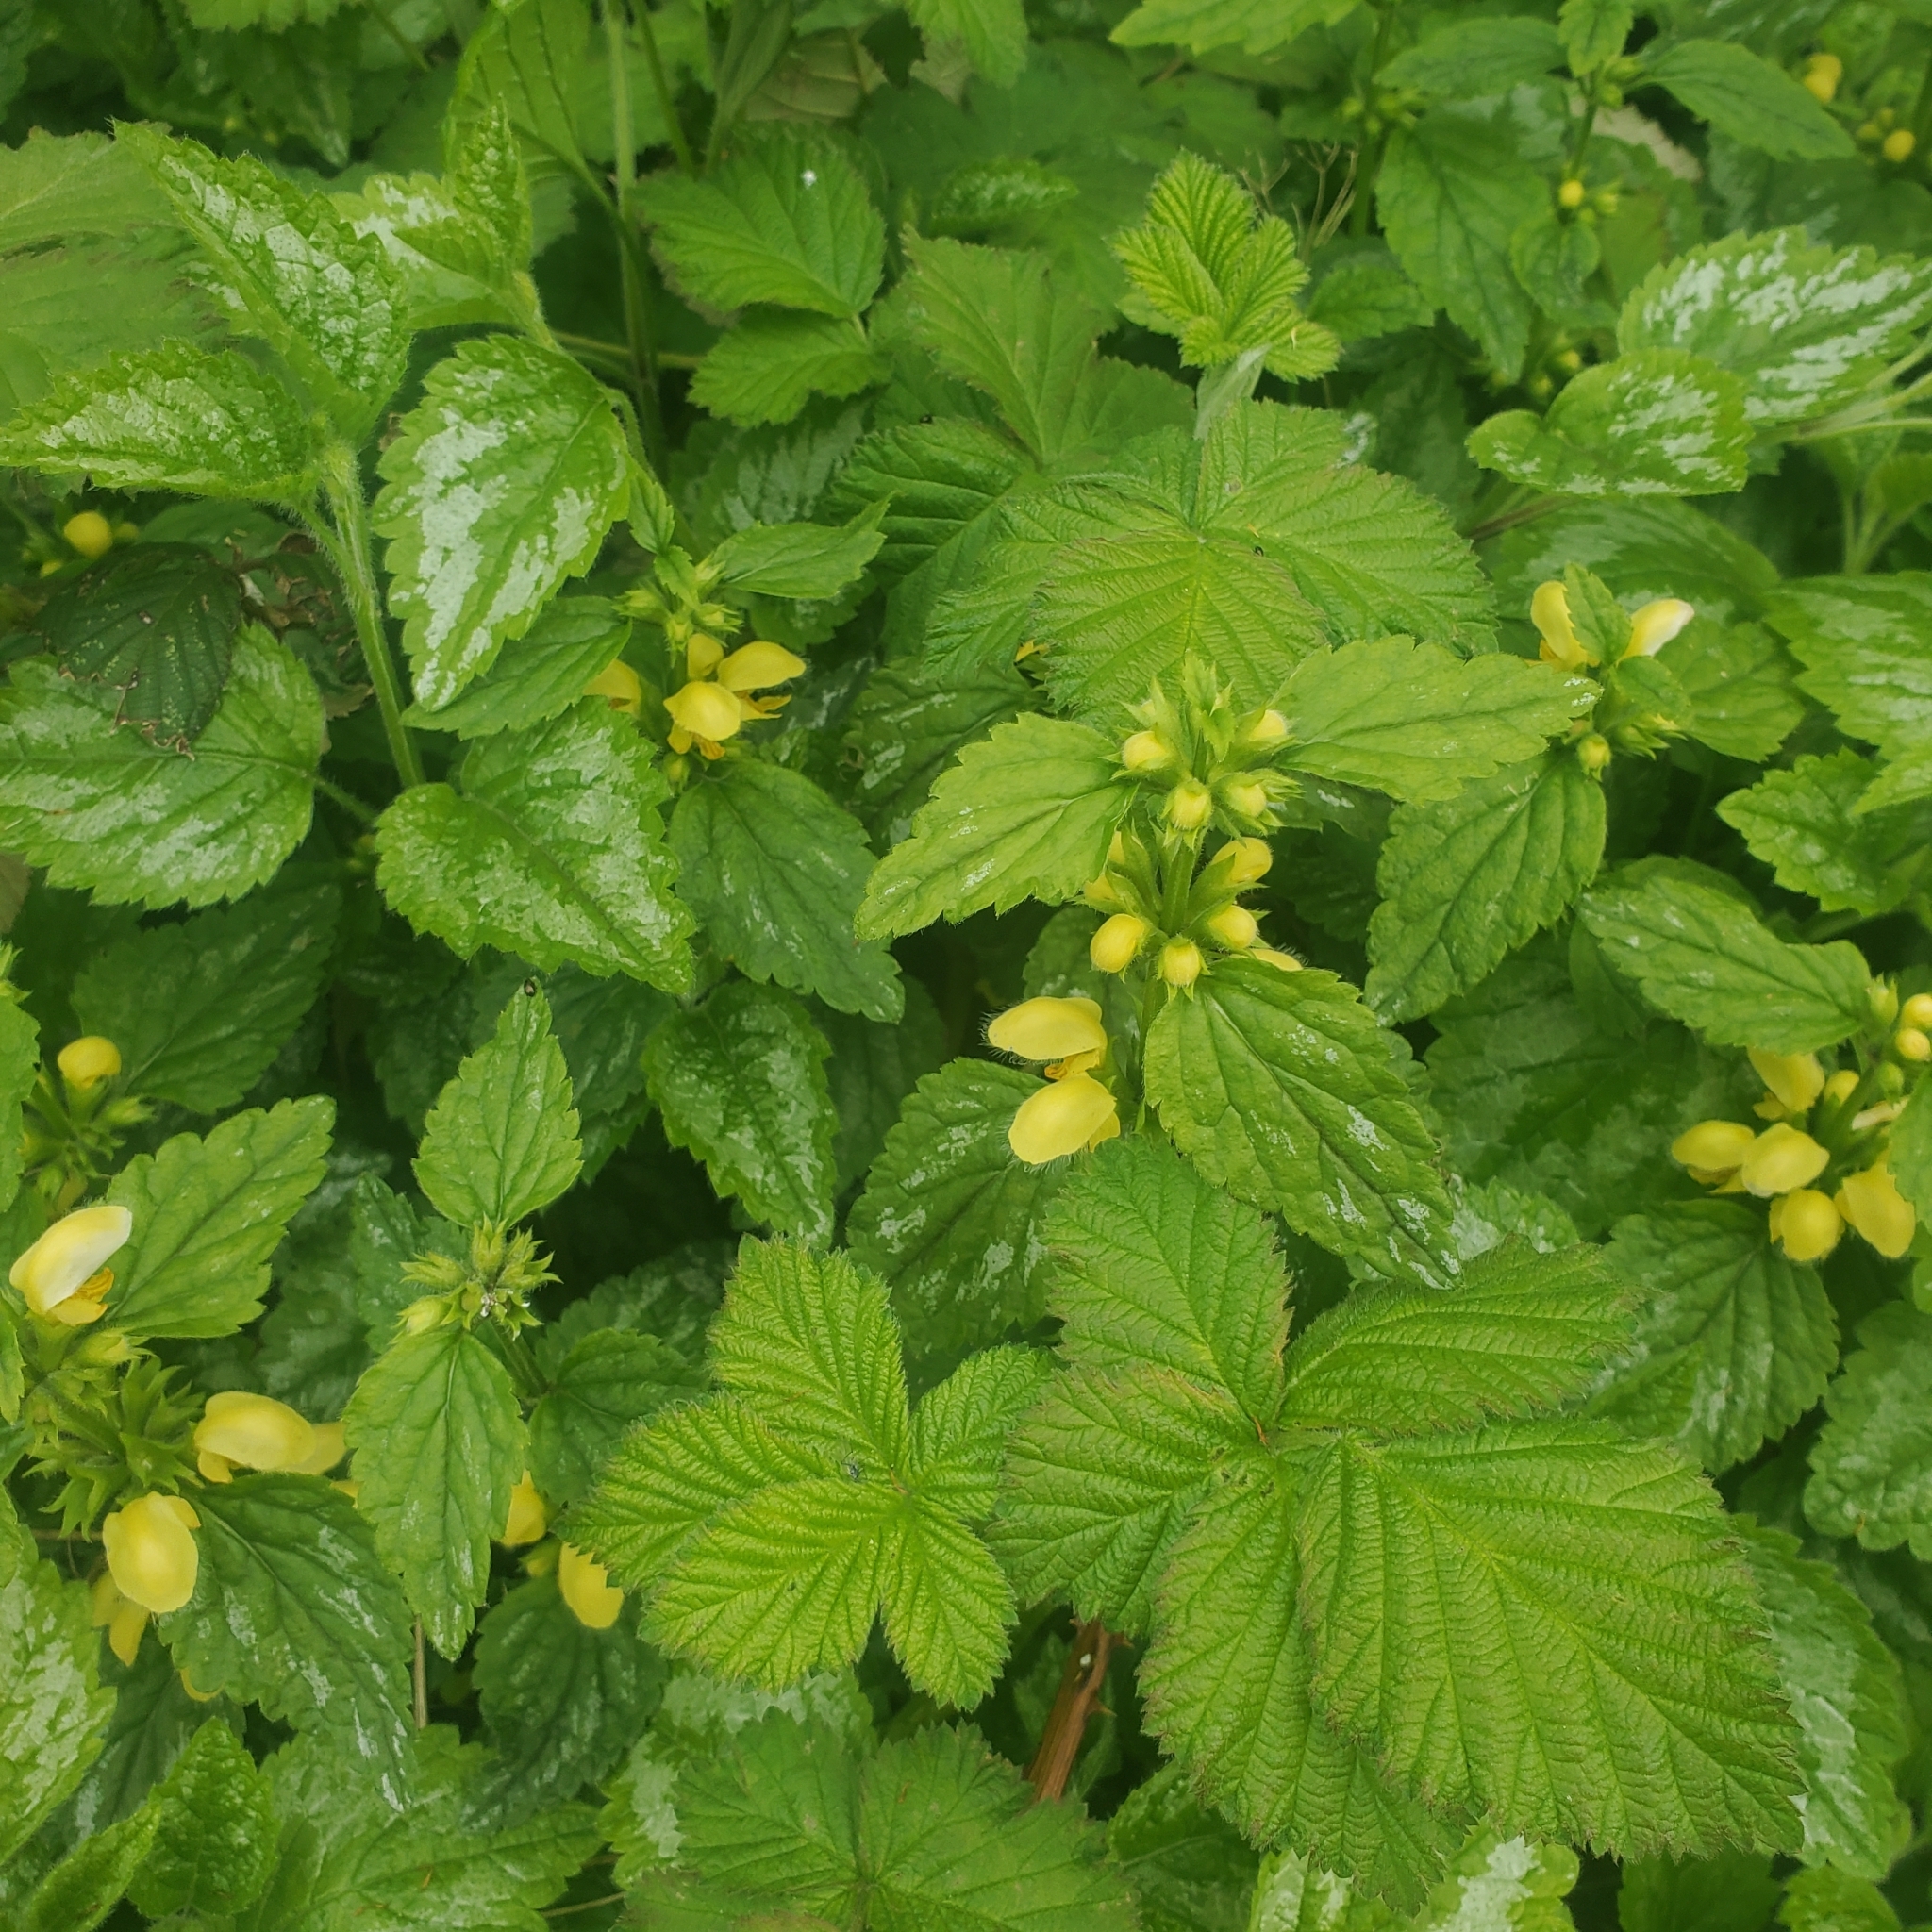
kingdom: Plantae
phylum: Tracheophyta
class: Magnoliopsida
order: Lamiales
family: Lamiaceae
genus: Lamium
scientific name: Lamium galeobdolon
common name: Yellow archangel
